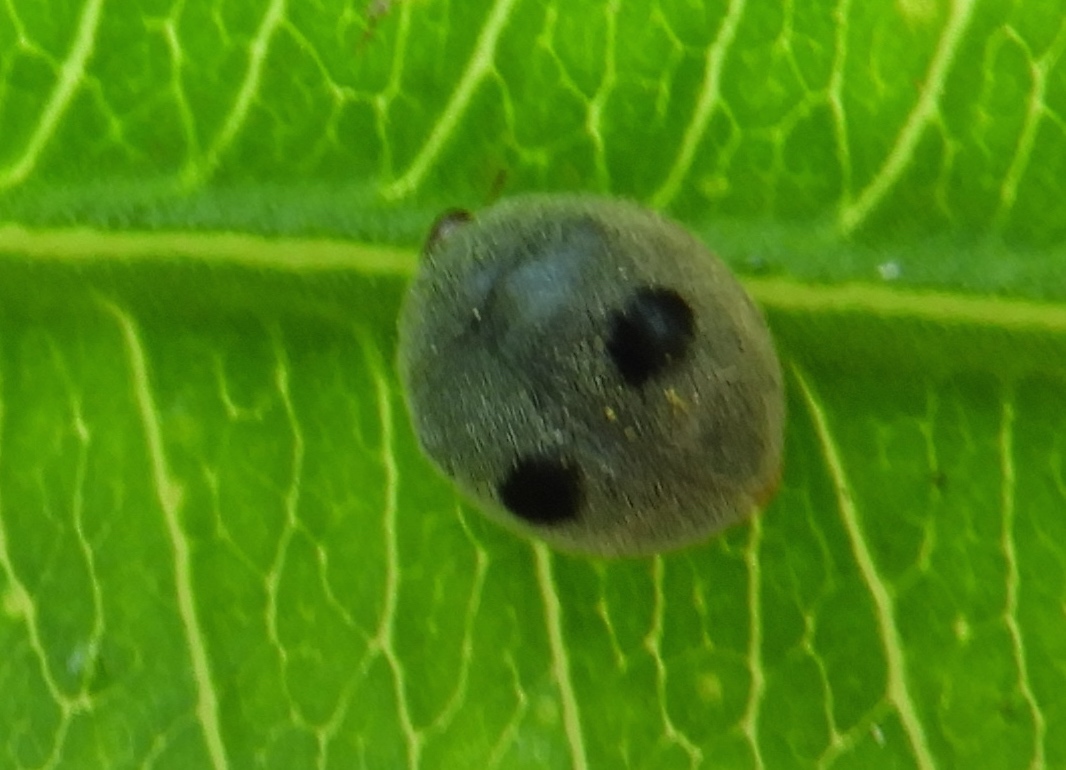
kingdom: Animalia
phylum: Arthropoda
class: Insecta
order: Coleoptera
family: Coccinellidae
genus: Azya
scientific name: Azya
